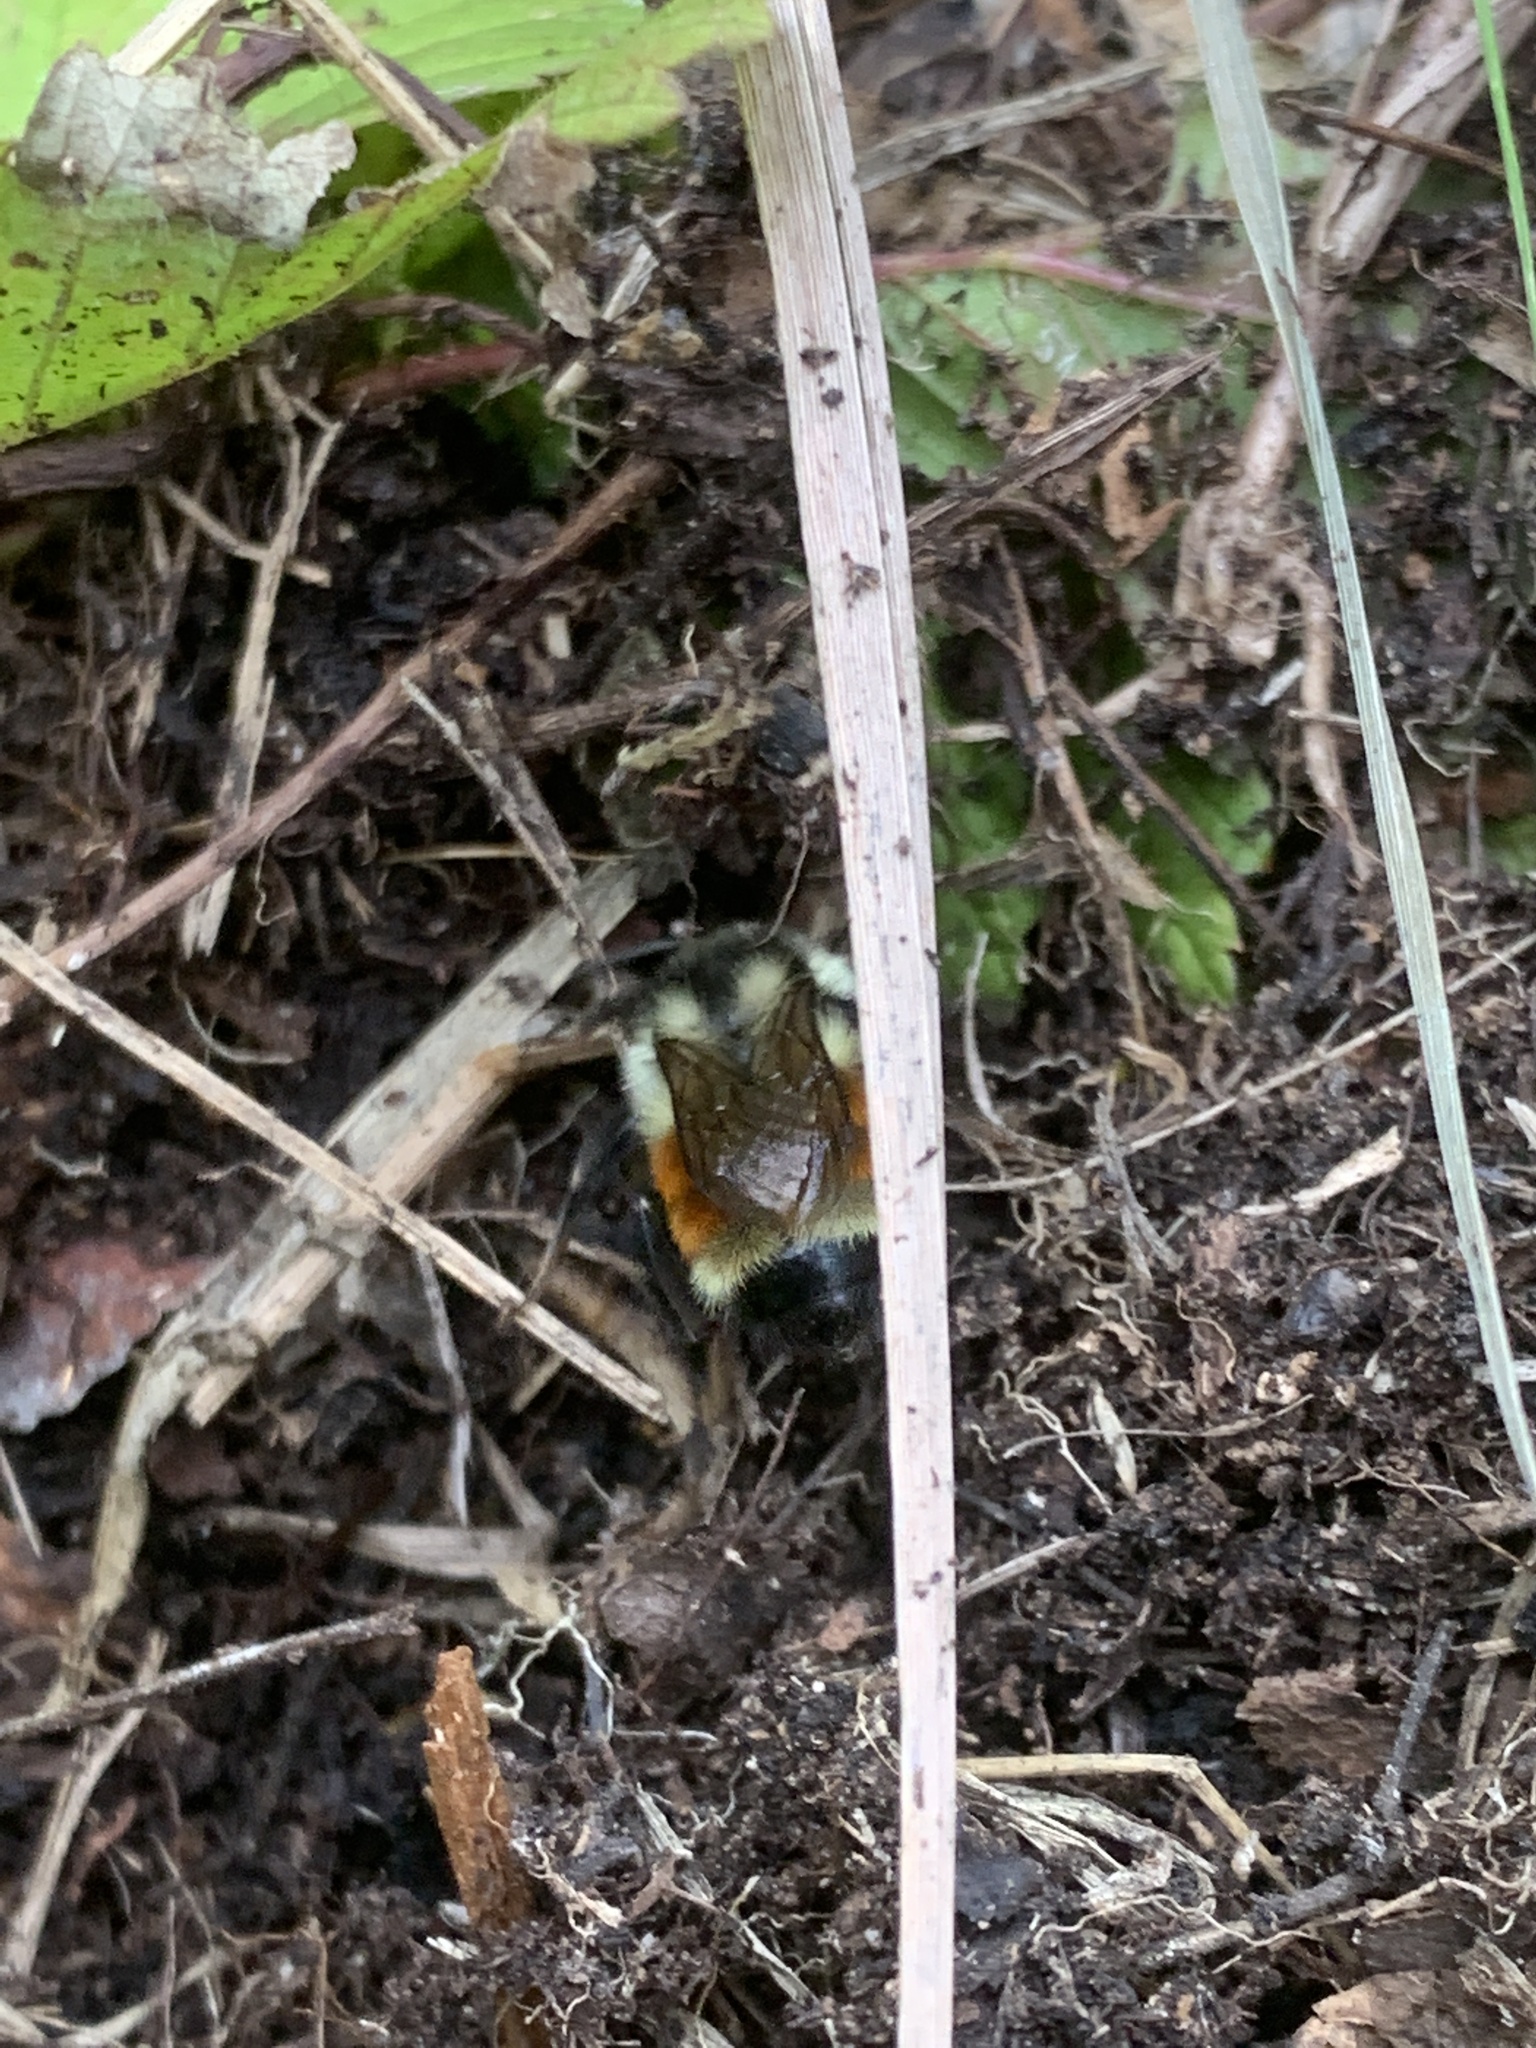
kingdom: Animalia
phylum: Arthropoda
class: Insecta
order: Hymenoptera
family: Apidae
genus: Bombus
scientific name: Bombus ternarius
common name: Tri-colored bumble bee
